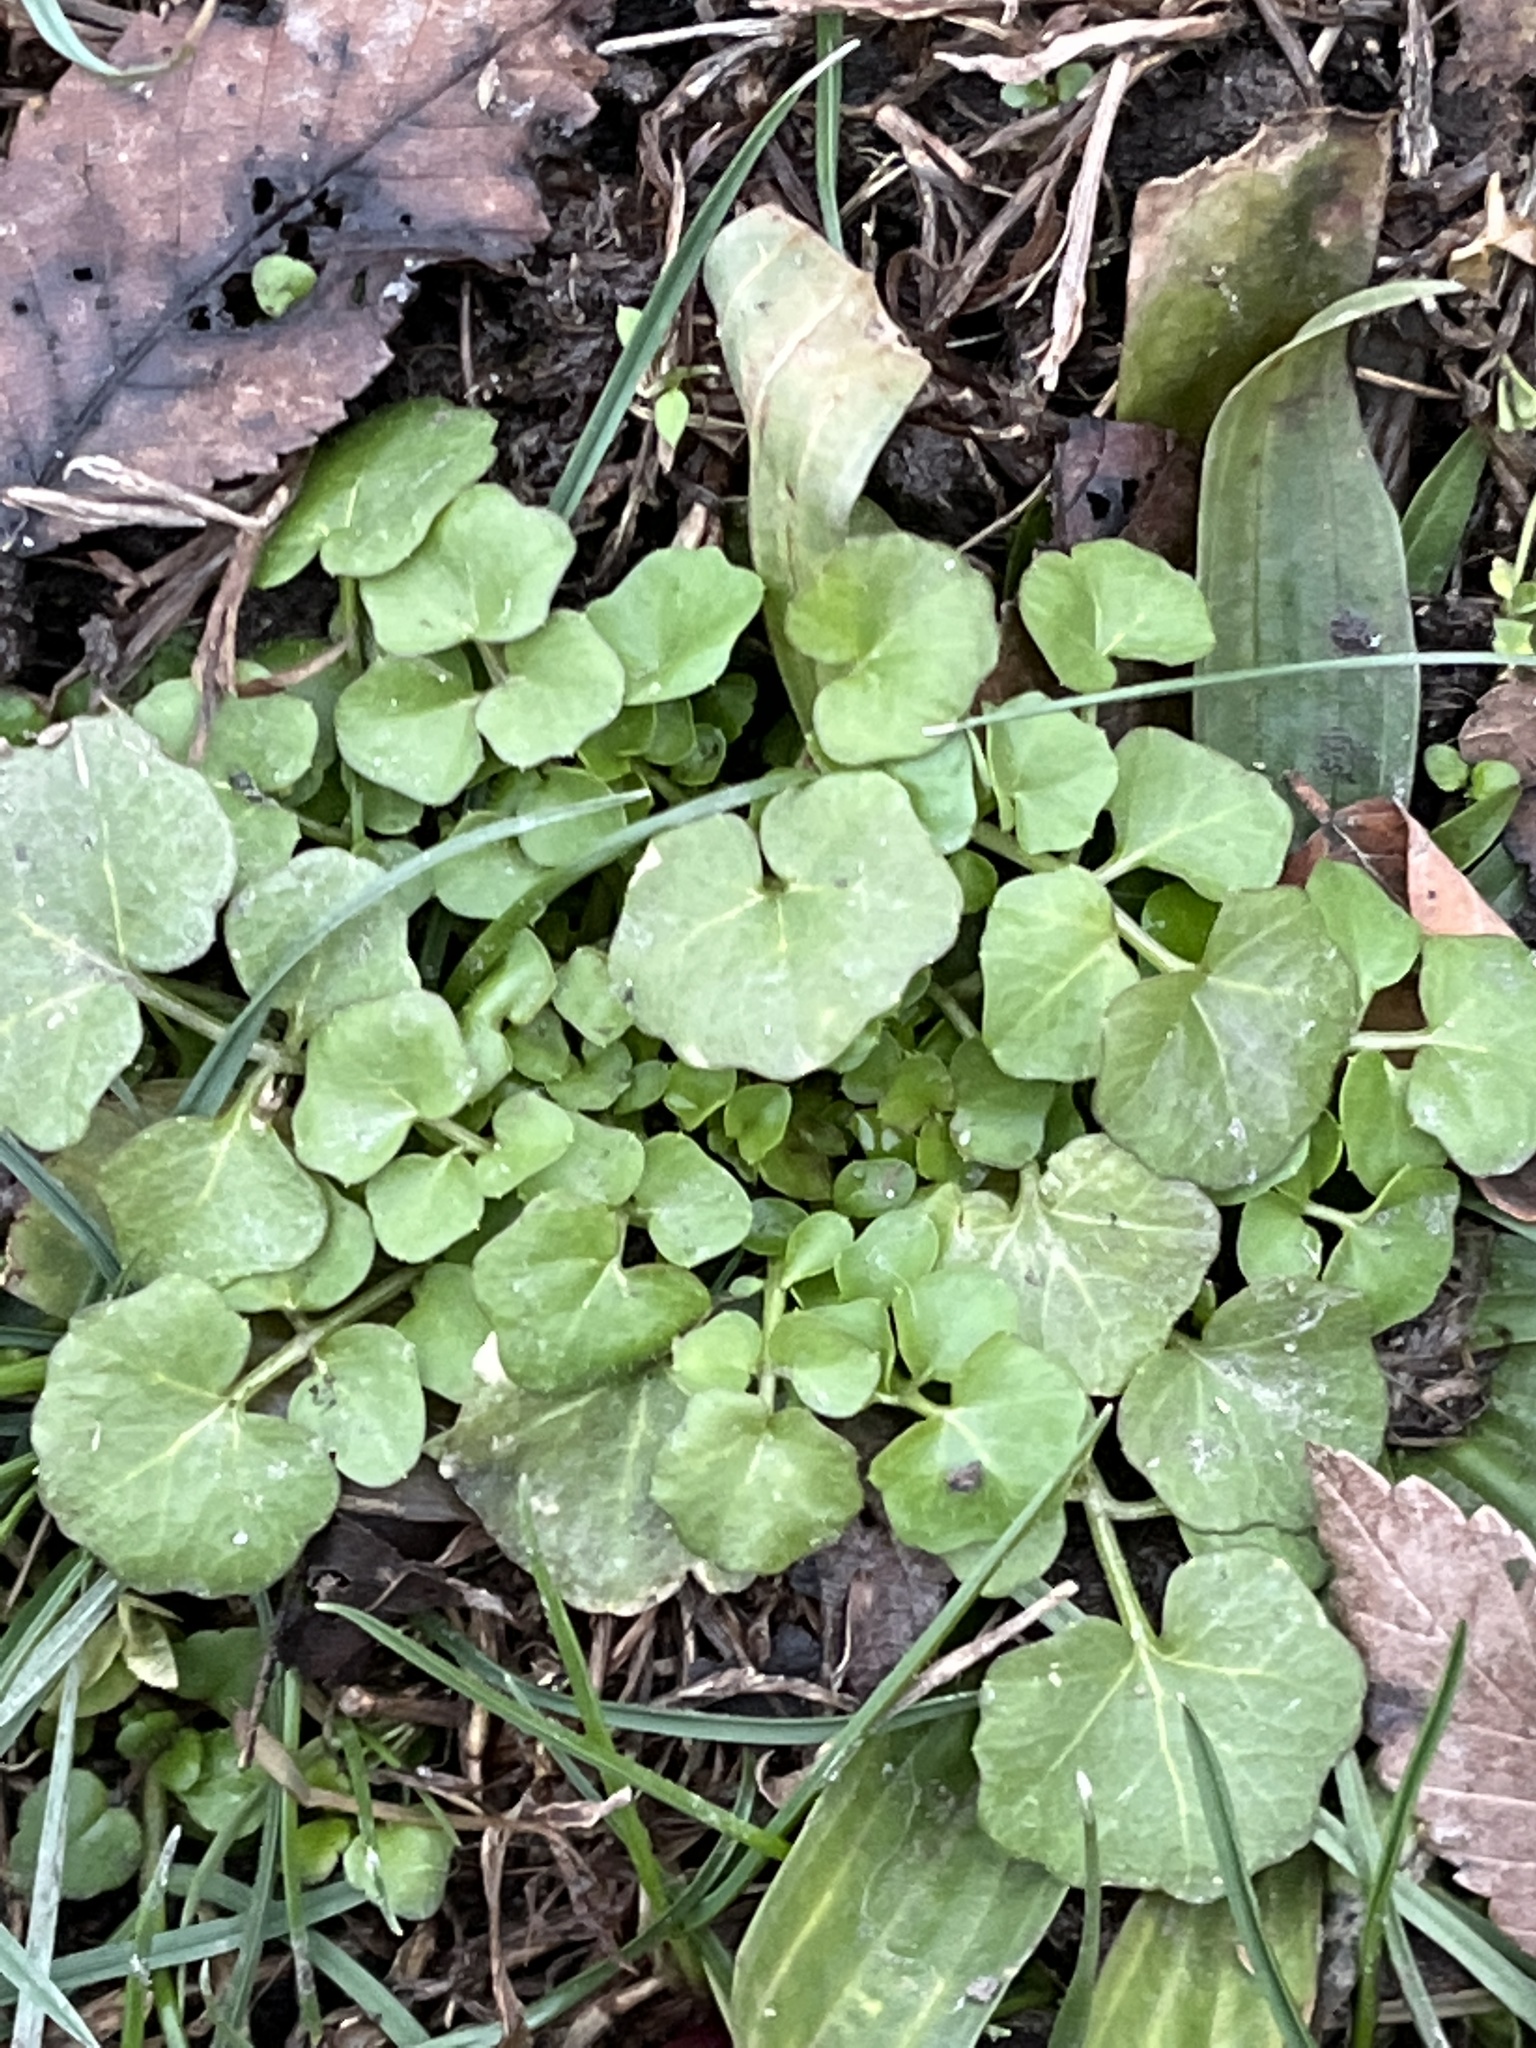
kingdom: Plantae
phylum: Tracheophyta
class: Magnoliopsida
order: Brassicales
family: Brassicaceae
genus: Cardamine
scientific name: Cardamine hirsuta
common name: Hairy bittercress
